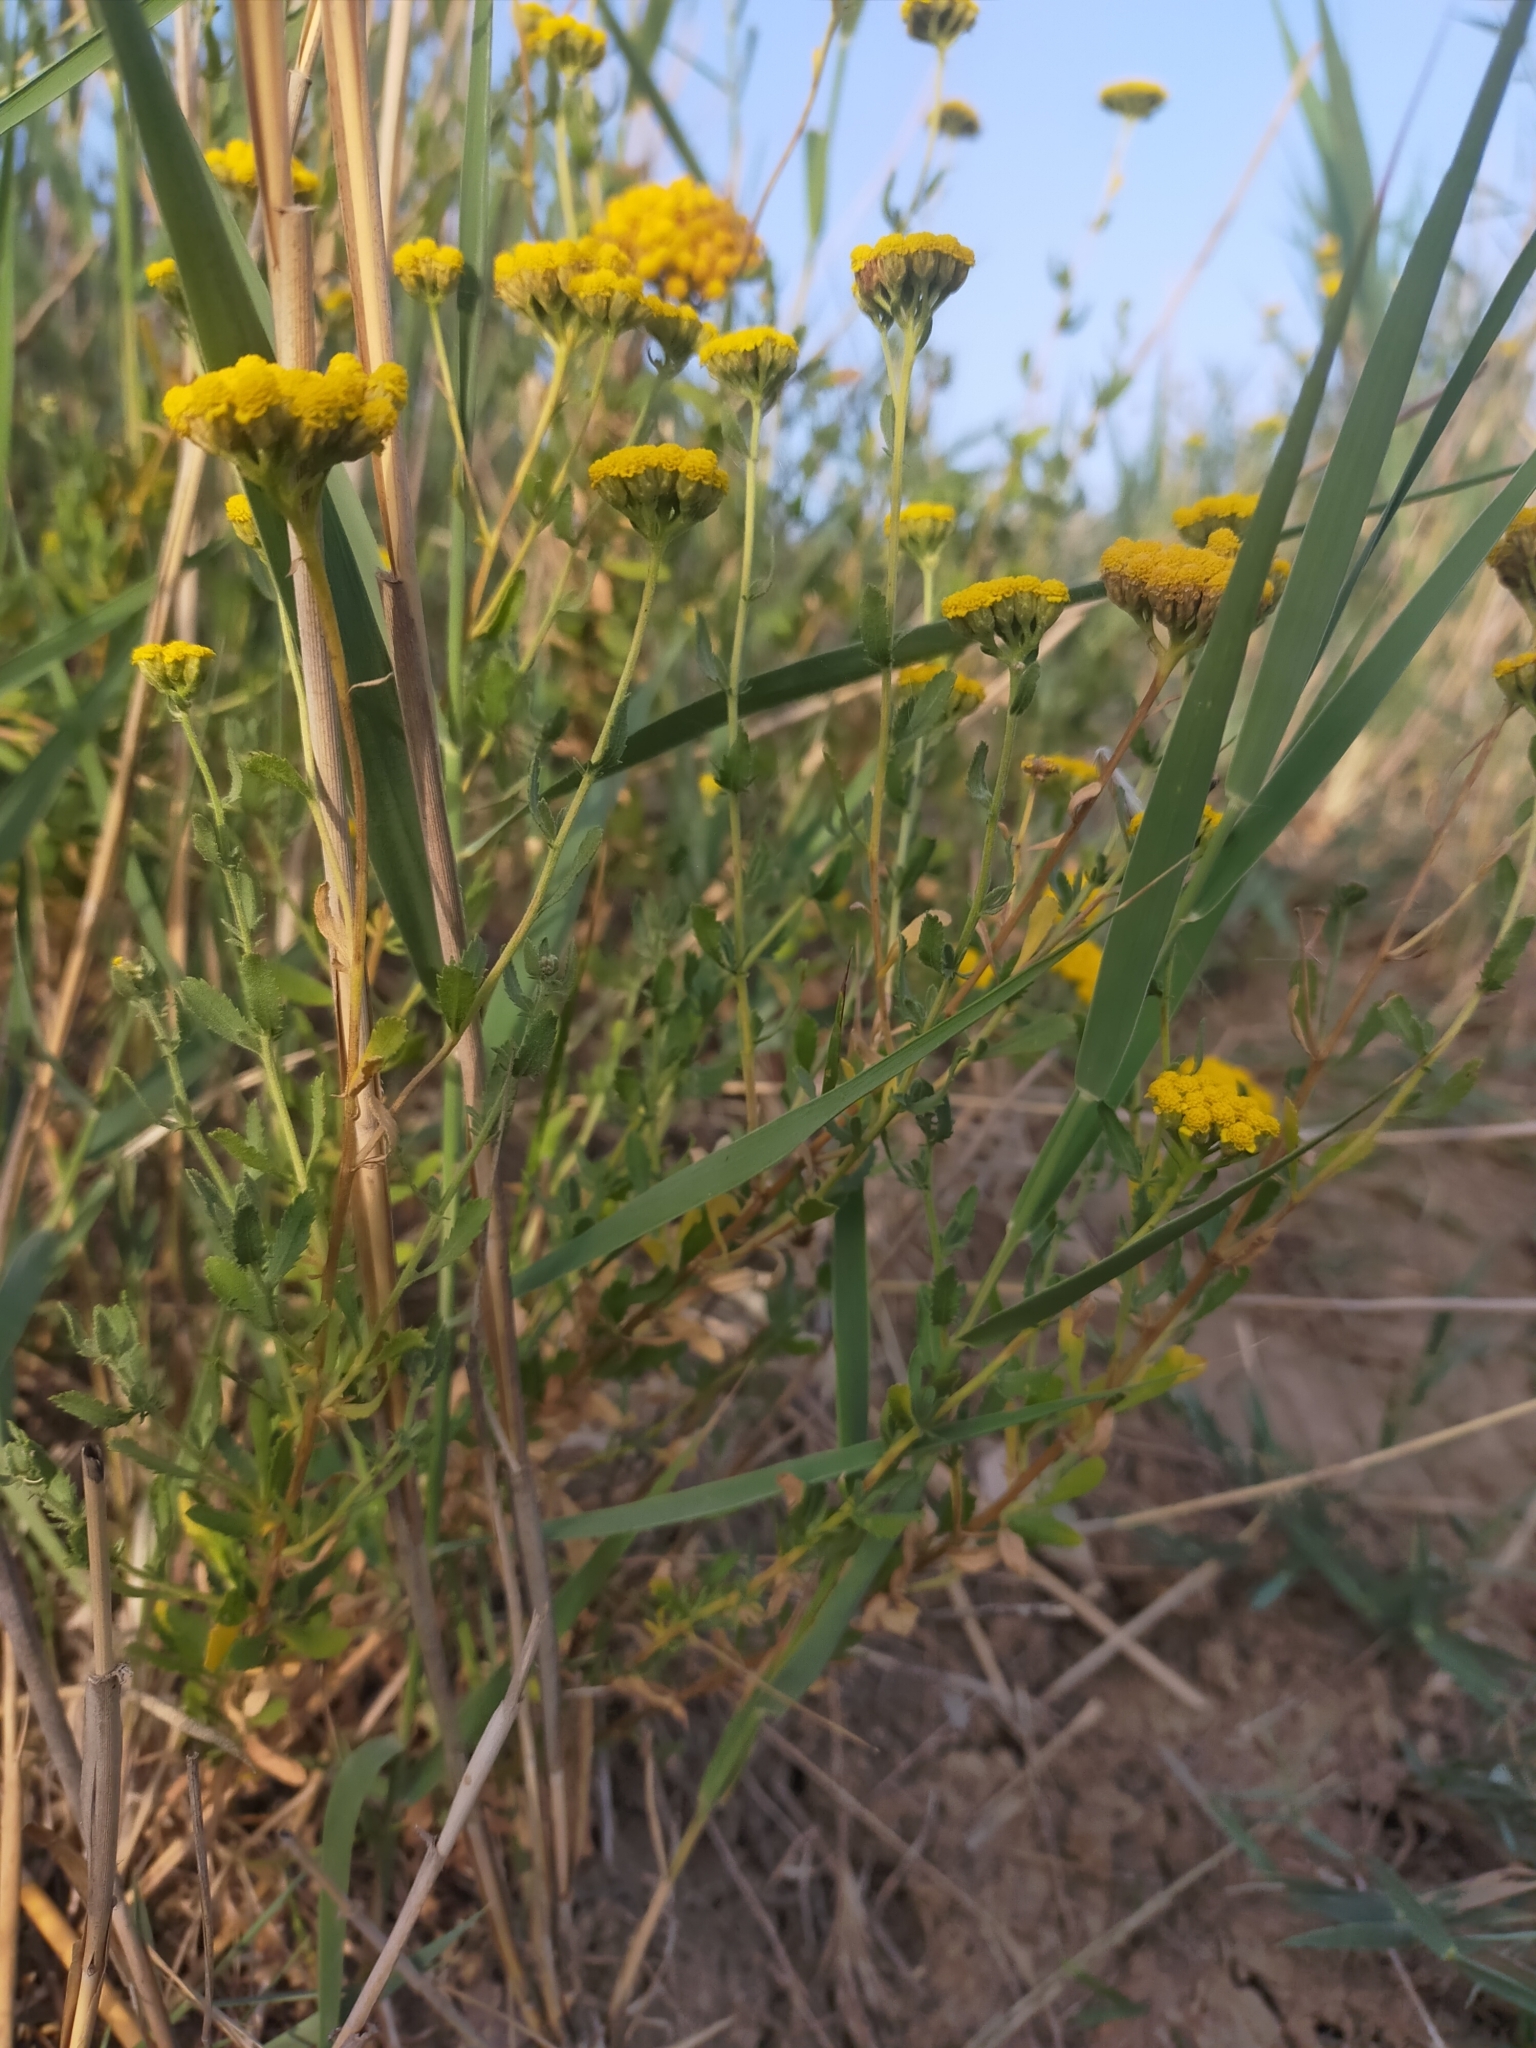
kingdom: Plantae
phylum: Tracheophyta
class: Magnoliopsida
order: Asterales
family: Asteraceae
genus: Achillea
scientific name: Achillea ageratum
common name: Sweet-nancy
